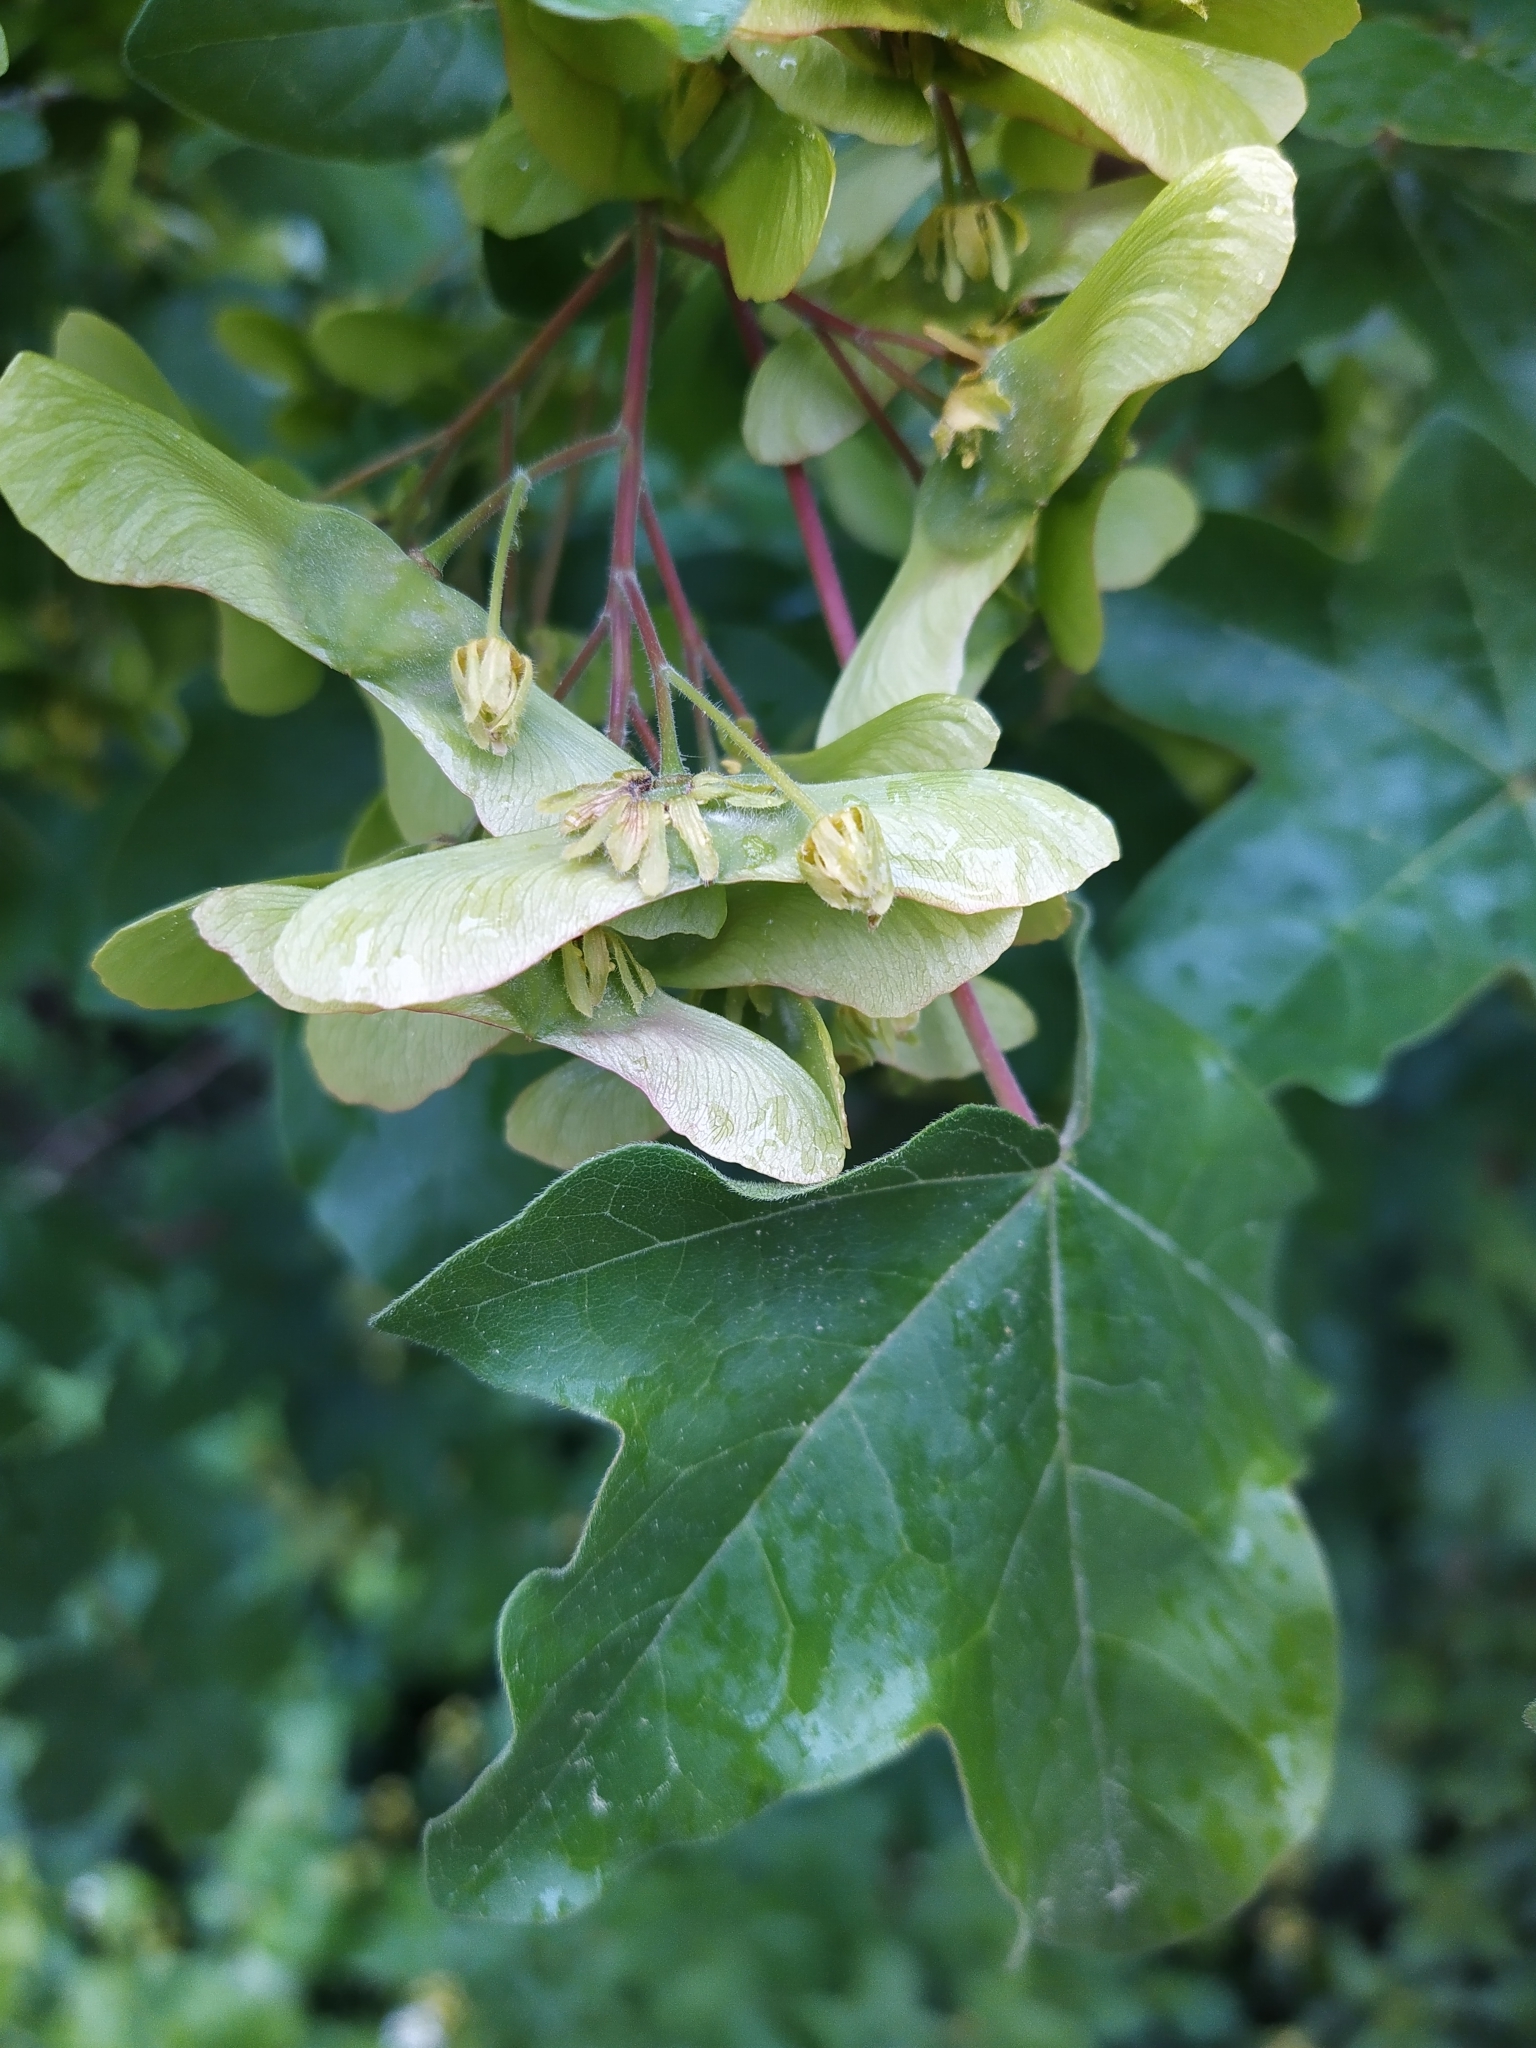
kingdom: Plantae
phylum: Tracheophyta
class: Magnoliopsida
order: Sapindales
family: Sapindaceae
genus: Acer
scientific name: Acer campestre
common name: Field maple
